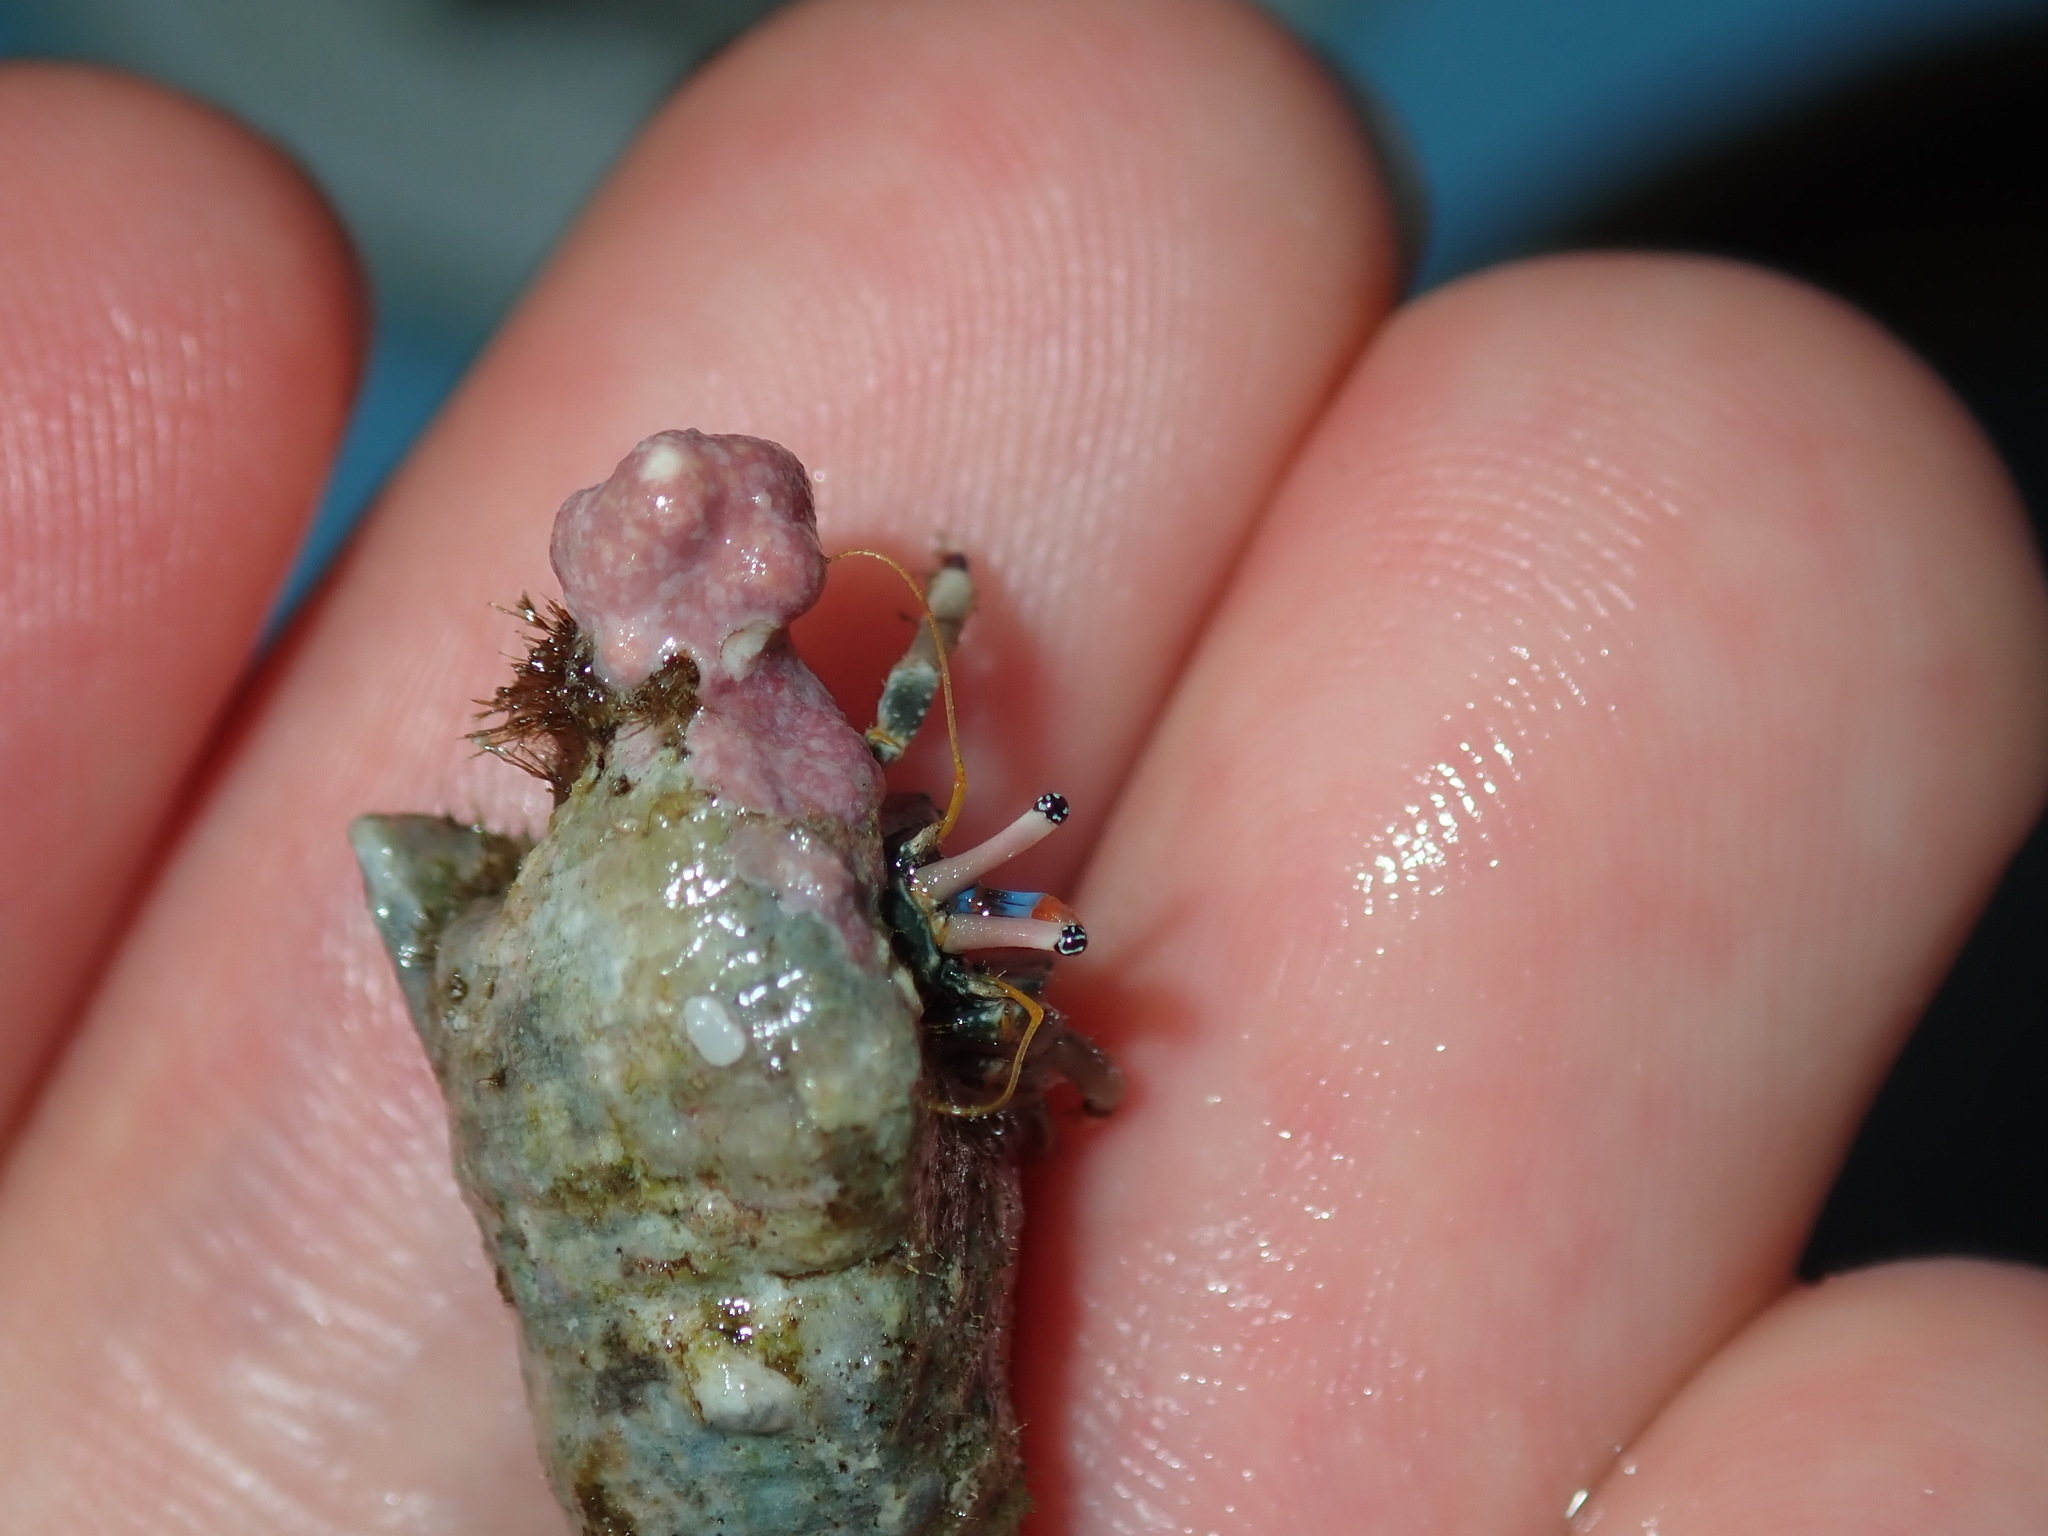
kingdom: Animalia
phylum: Arthropoda
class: Malacostraca
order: Decapoda
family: Diogenidae
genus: Calcinus
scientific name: Calcinus latens
